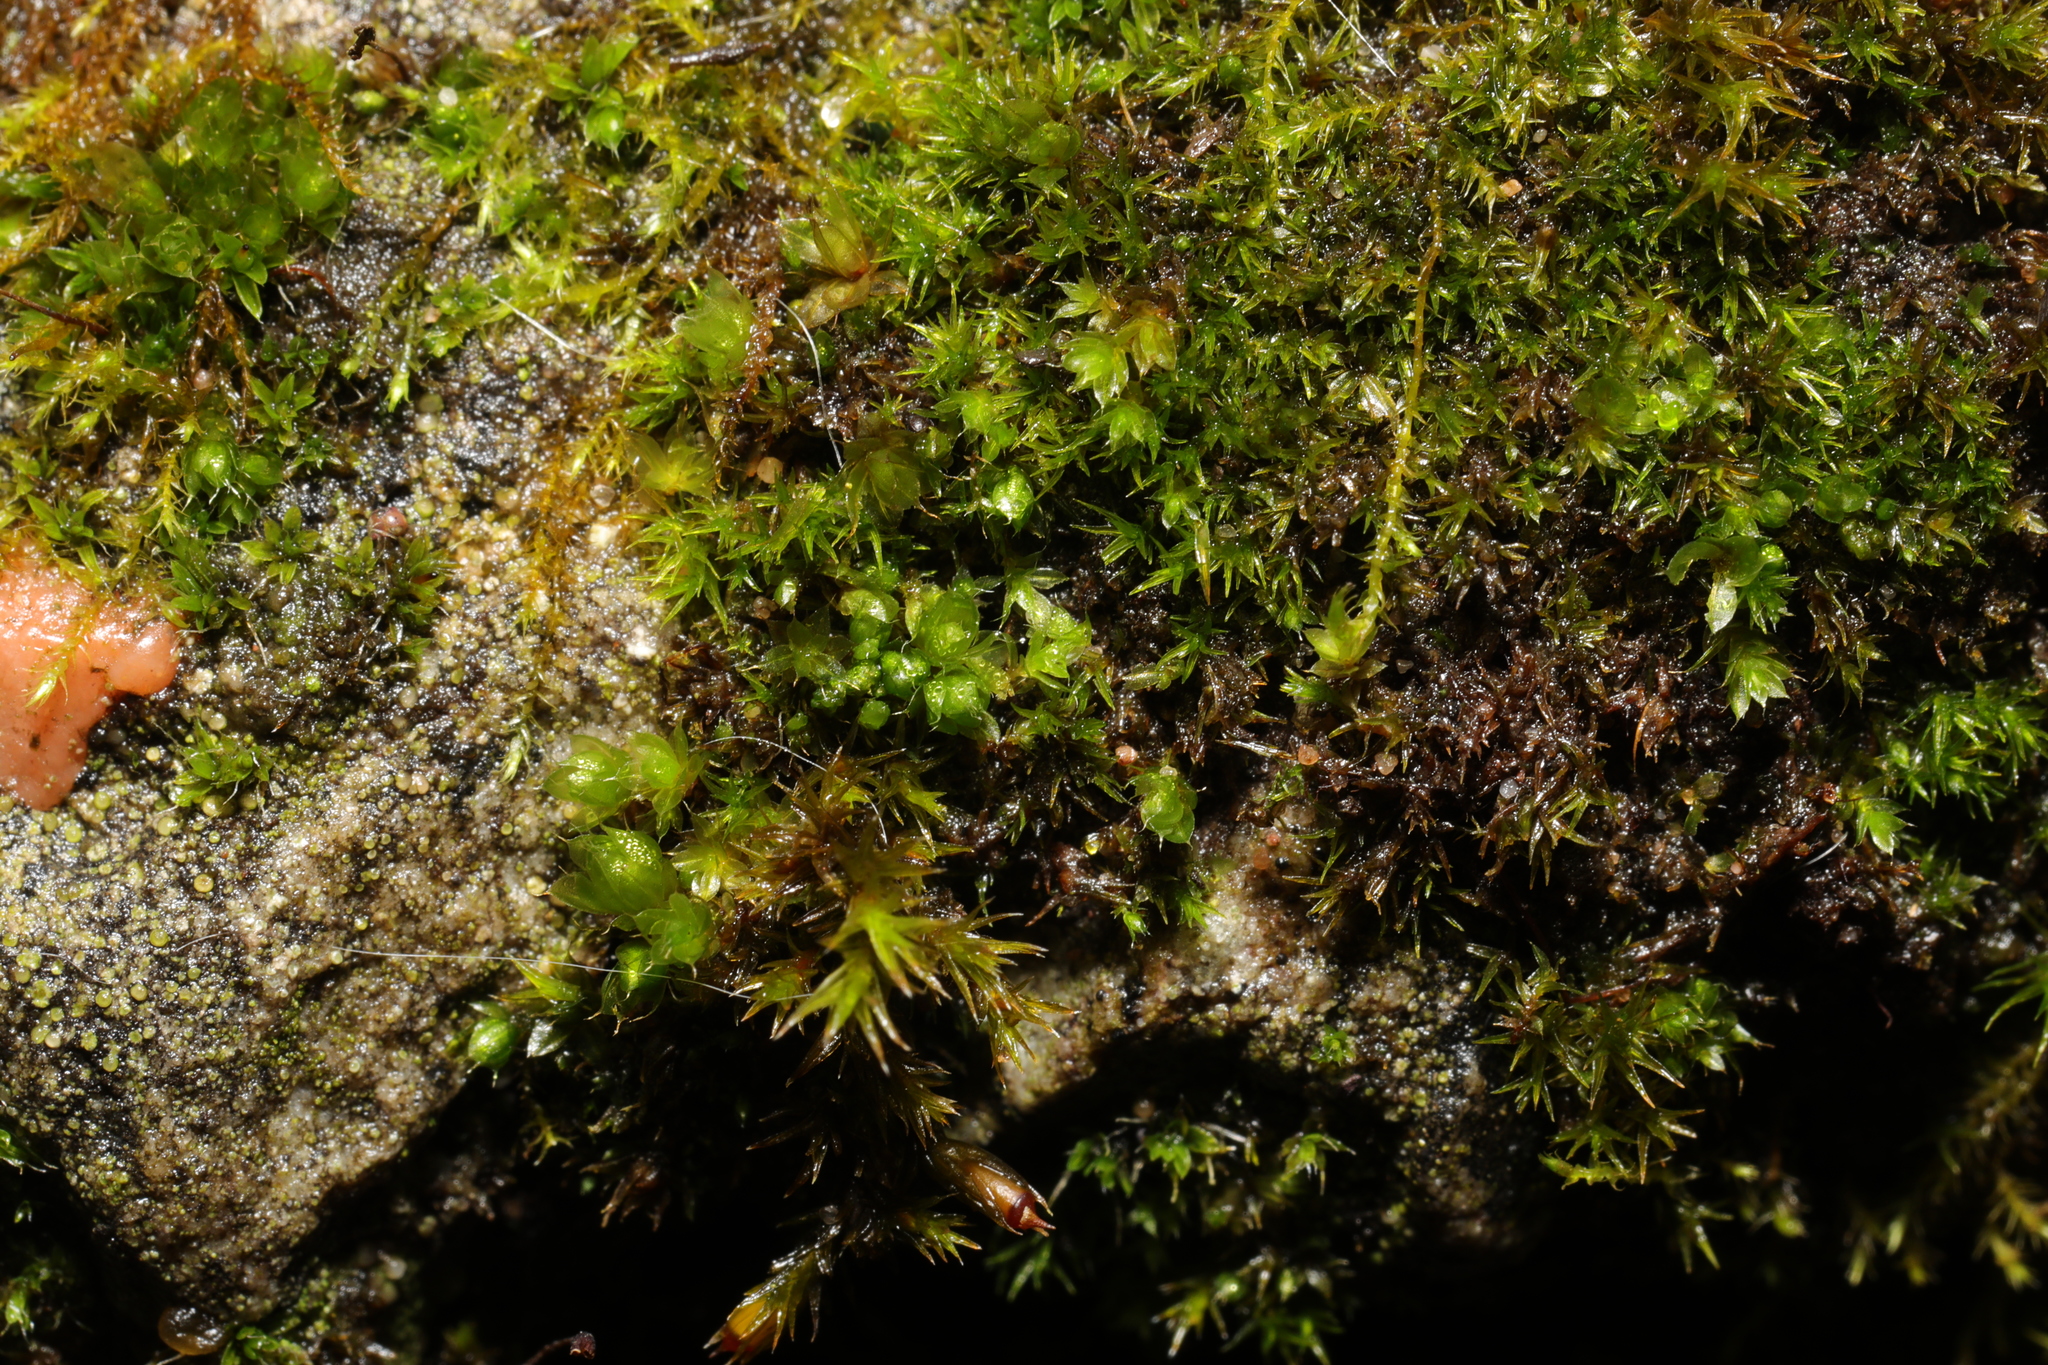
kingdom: Plantae
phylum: Bryophyta
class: Bryopsida
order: Bryales
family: Bryaceae
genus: Rosulabryum
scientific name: Rosulabryum capillare
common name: Capillary thread-moss
